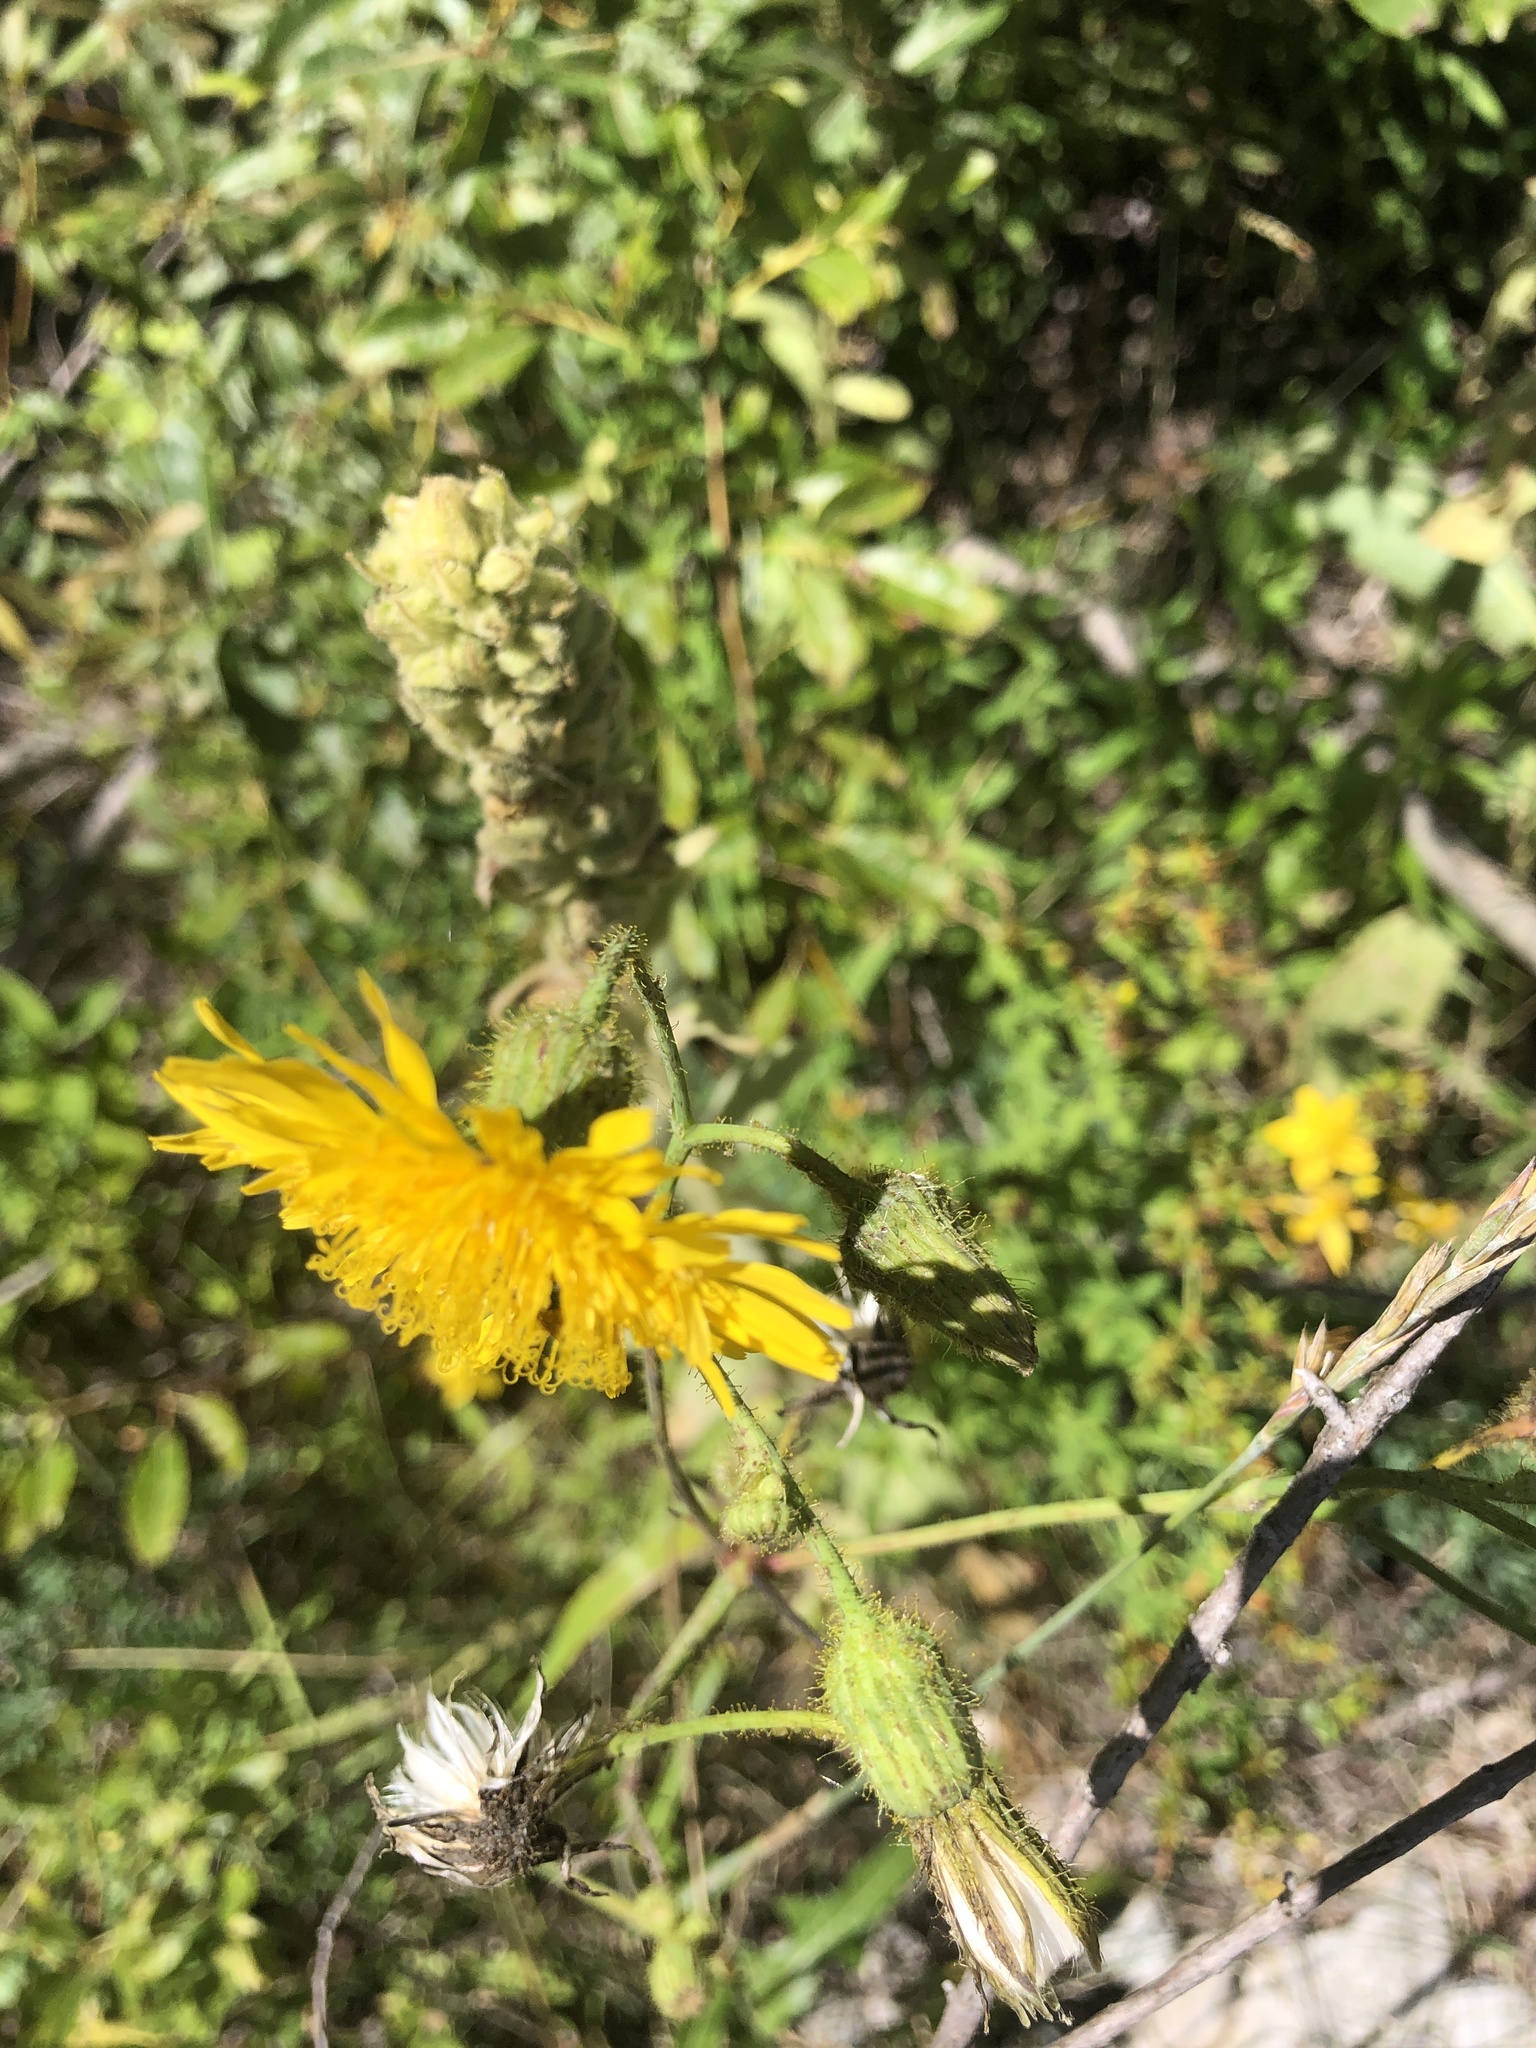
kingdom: Plantae
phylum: Tracheophyta
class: Magnoliopsida
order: Asterales
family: Asteraceae
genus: Sonchus
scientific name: Sonchus arvensis
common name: Perennial sow-thistle
